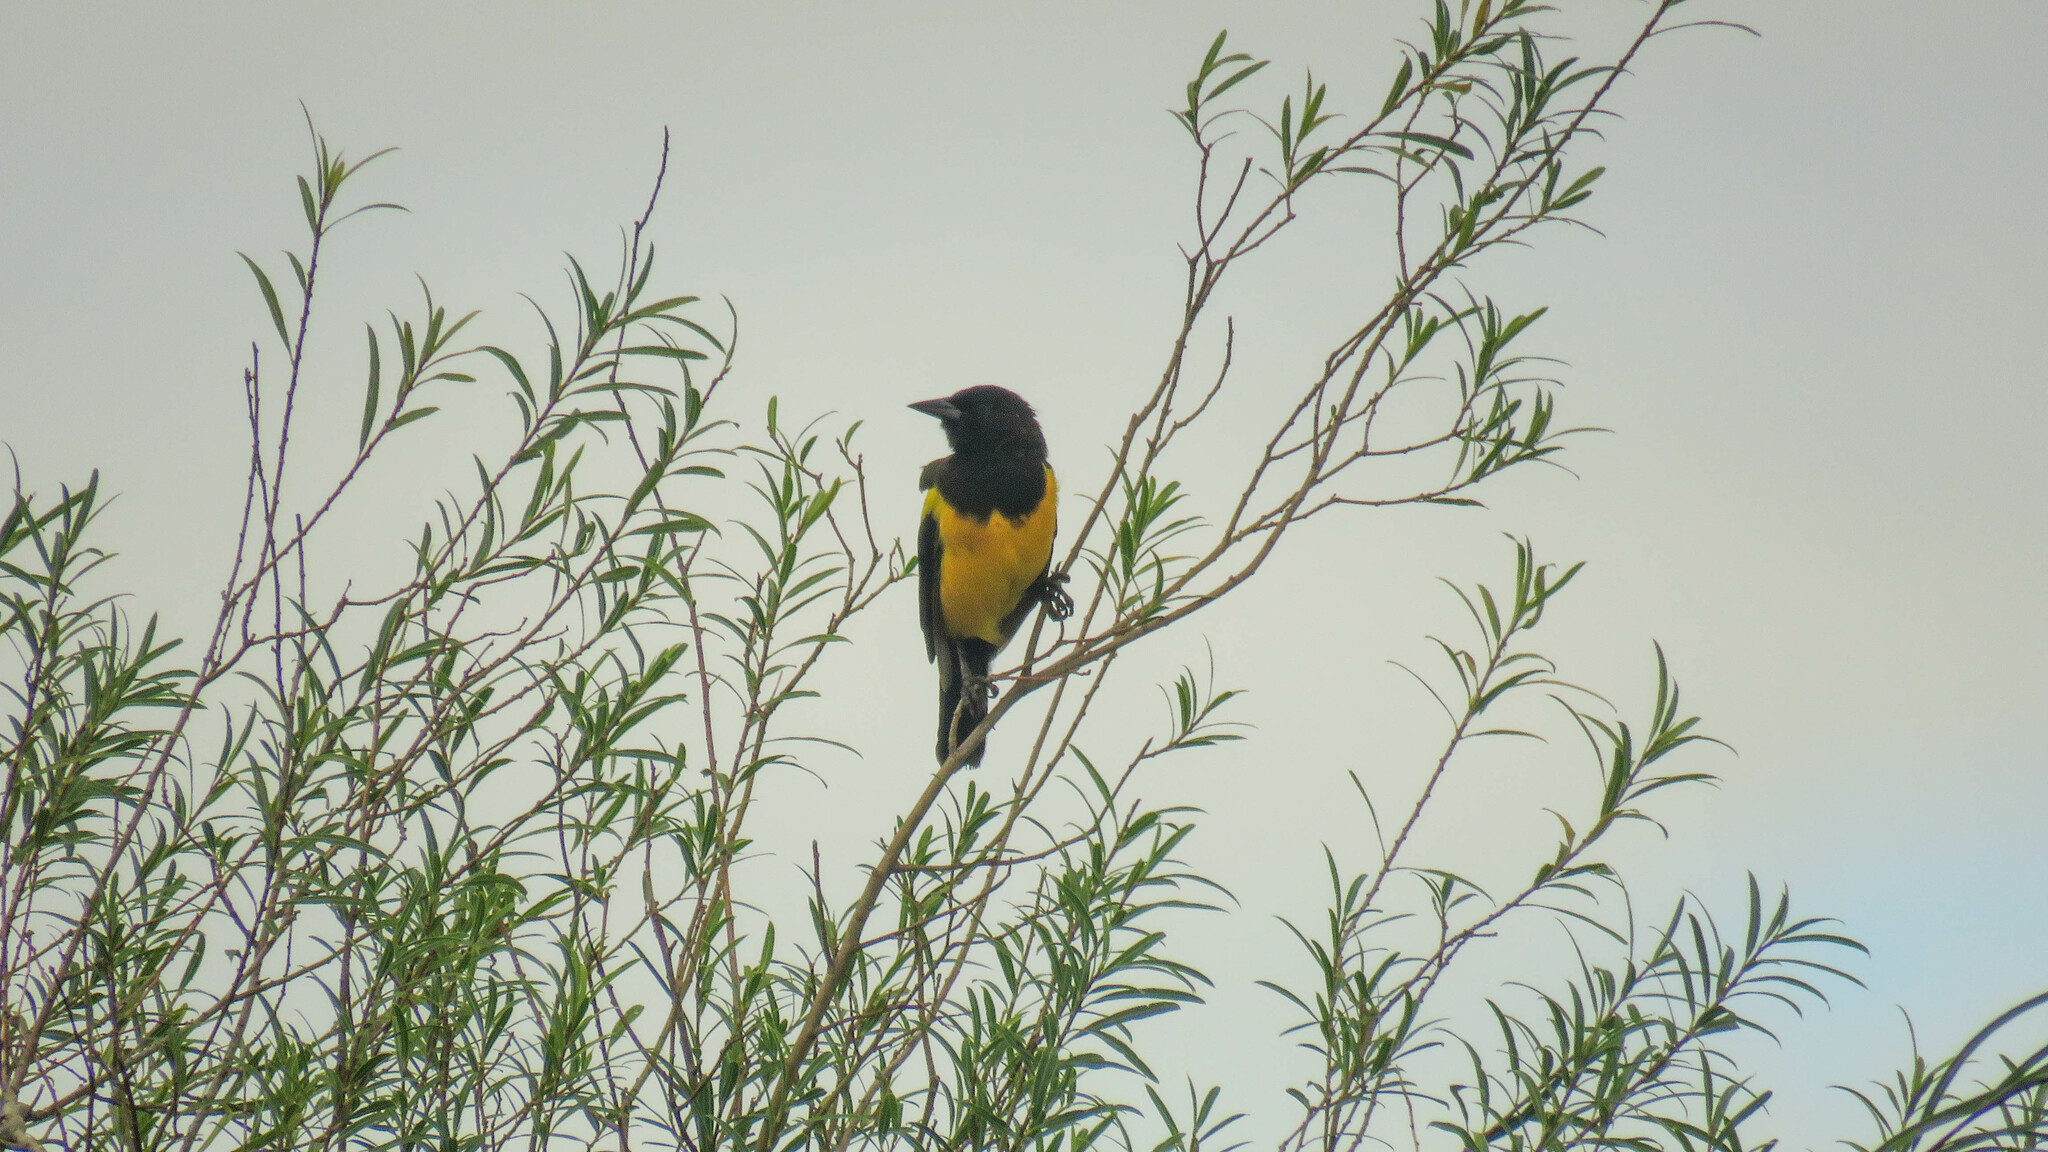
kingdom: Animalia
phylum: Chordata
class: Aves
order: Passeriformes
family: Icteridae
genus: Pseudoleistes
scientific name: Pseudoleistes guirahuro
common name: Yellow-rumped marshbird
